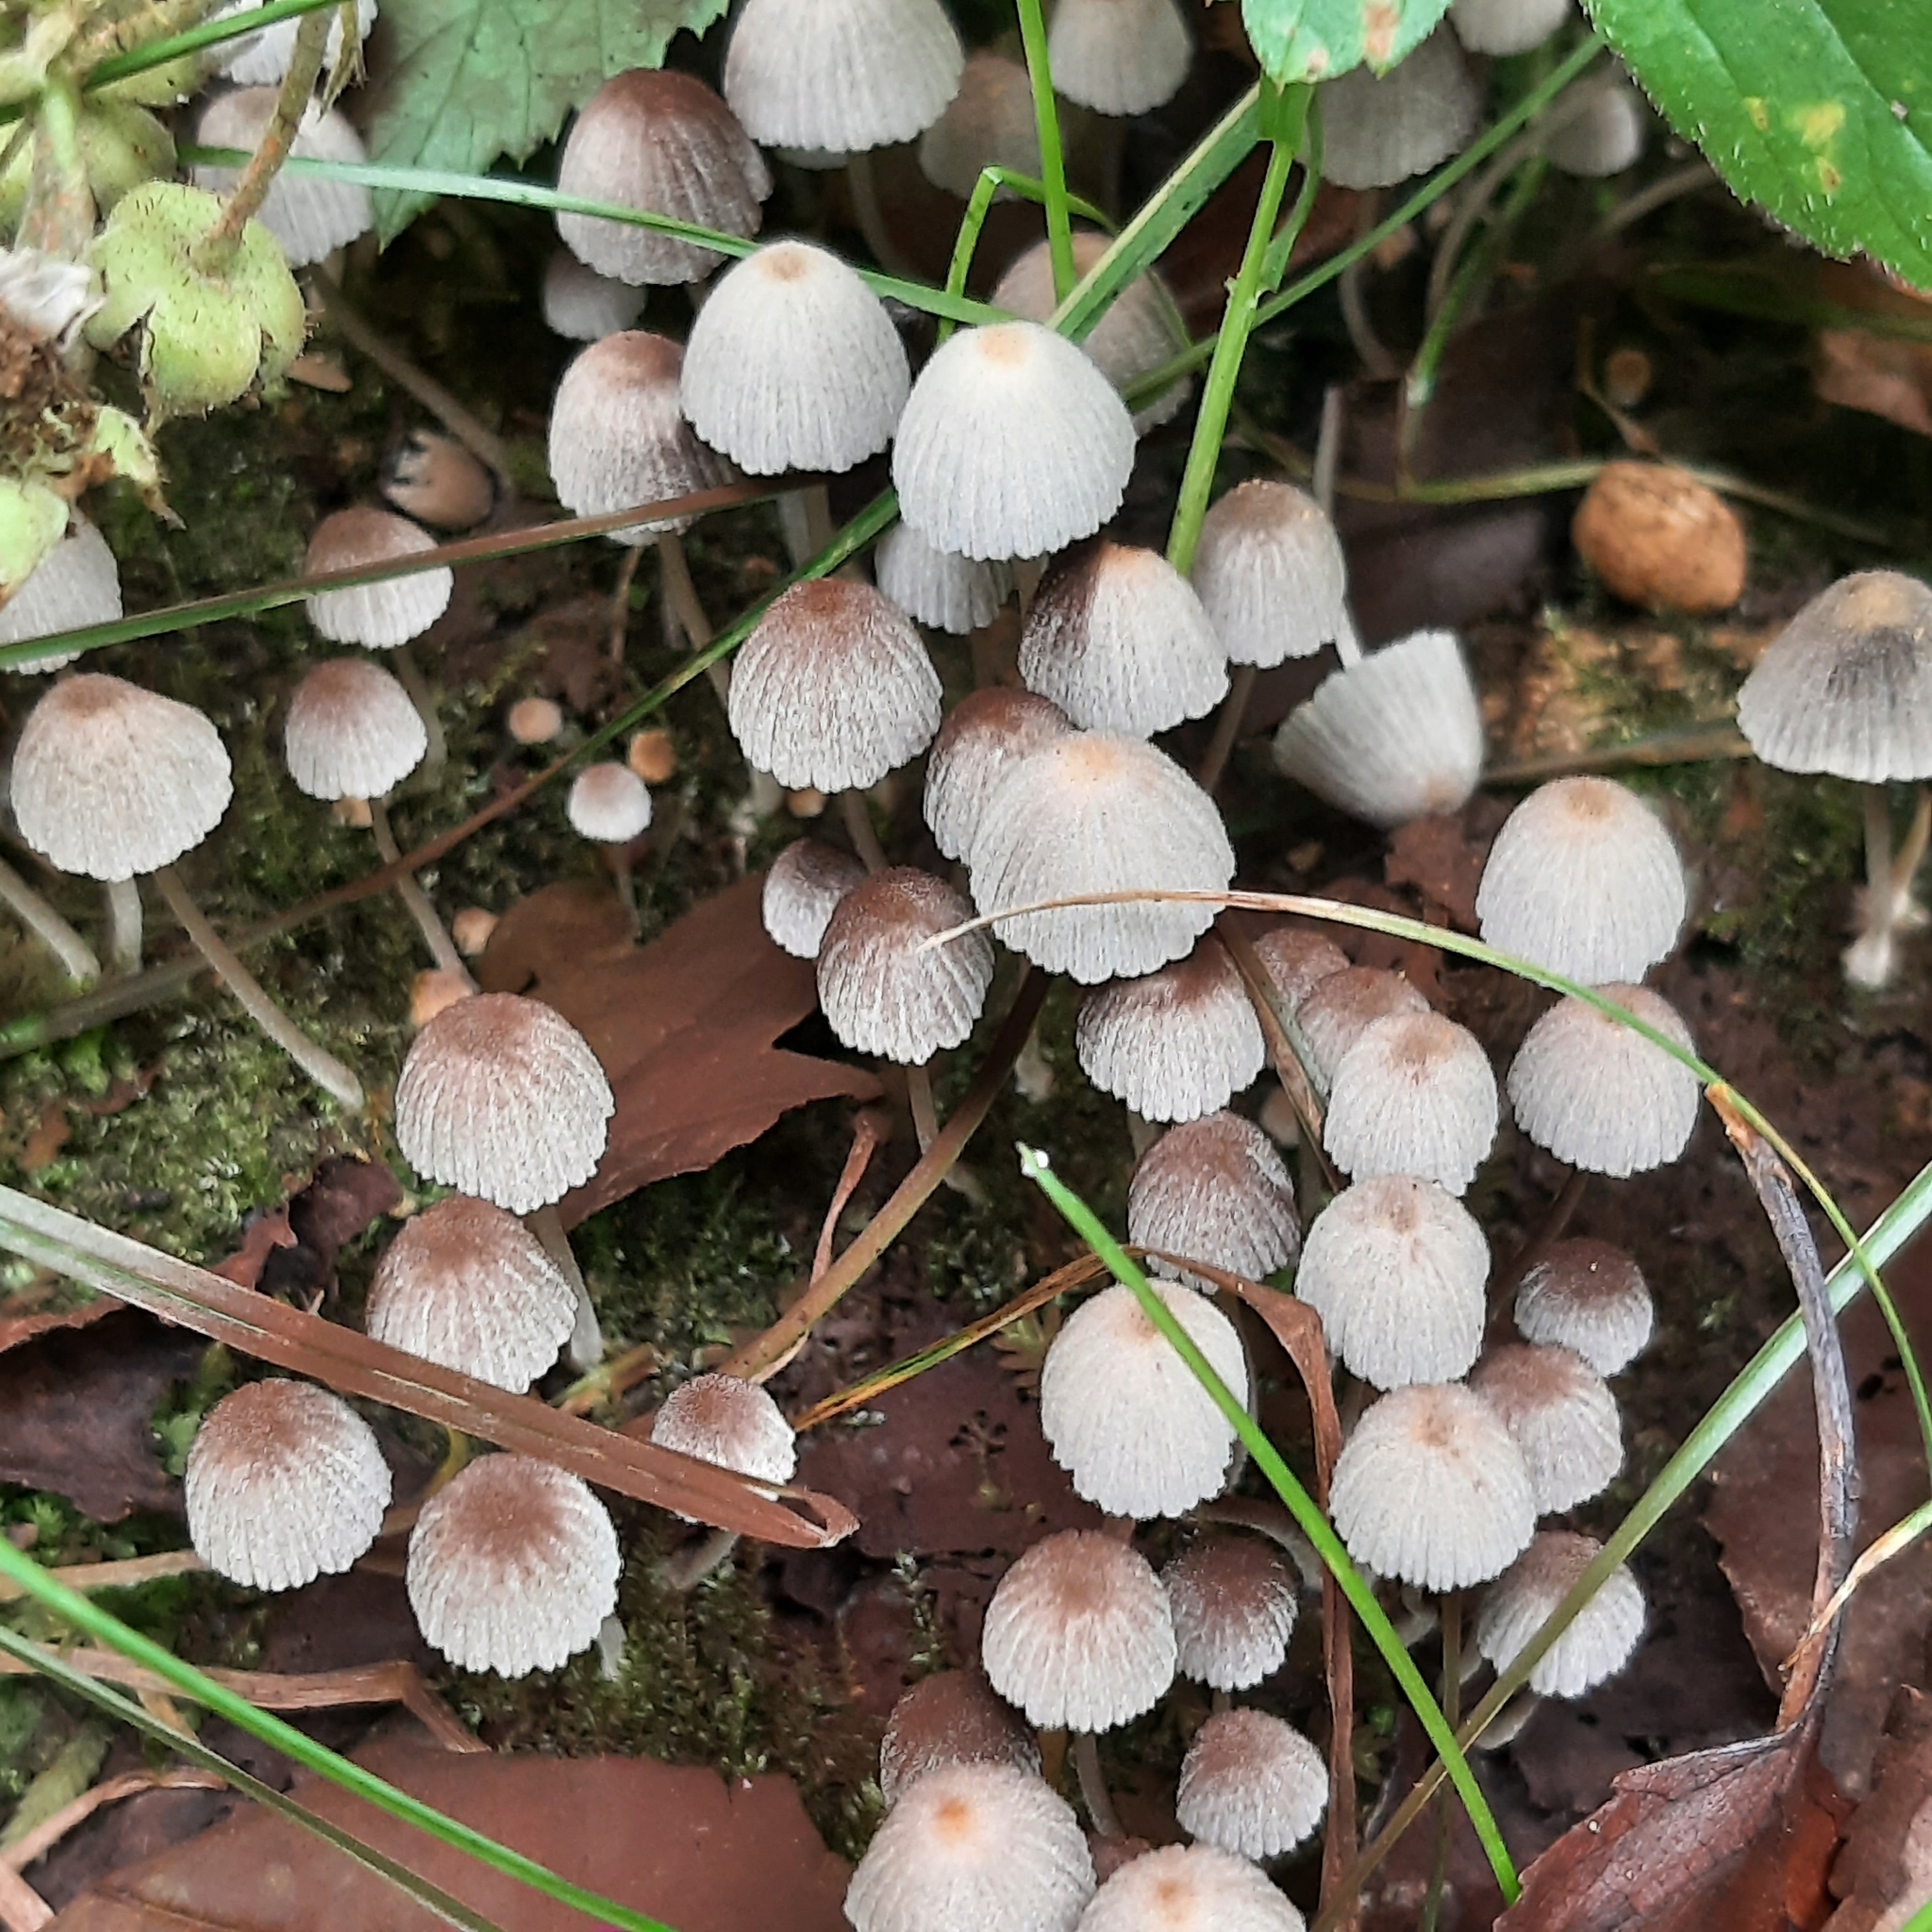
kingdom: Fungi
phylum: Basidiomycota
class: Agaricomycetes
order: Agaricales
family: Psathyrellaceae
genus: Coprinellus
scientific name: Coprinellus disseminatus
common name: Fairies' bonnets
